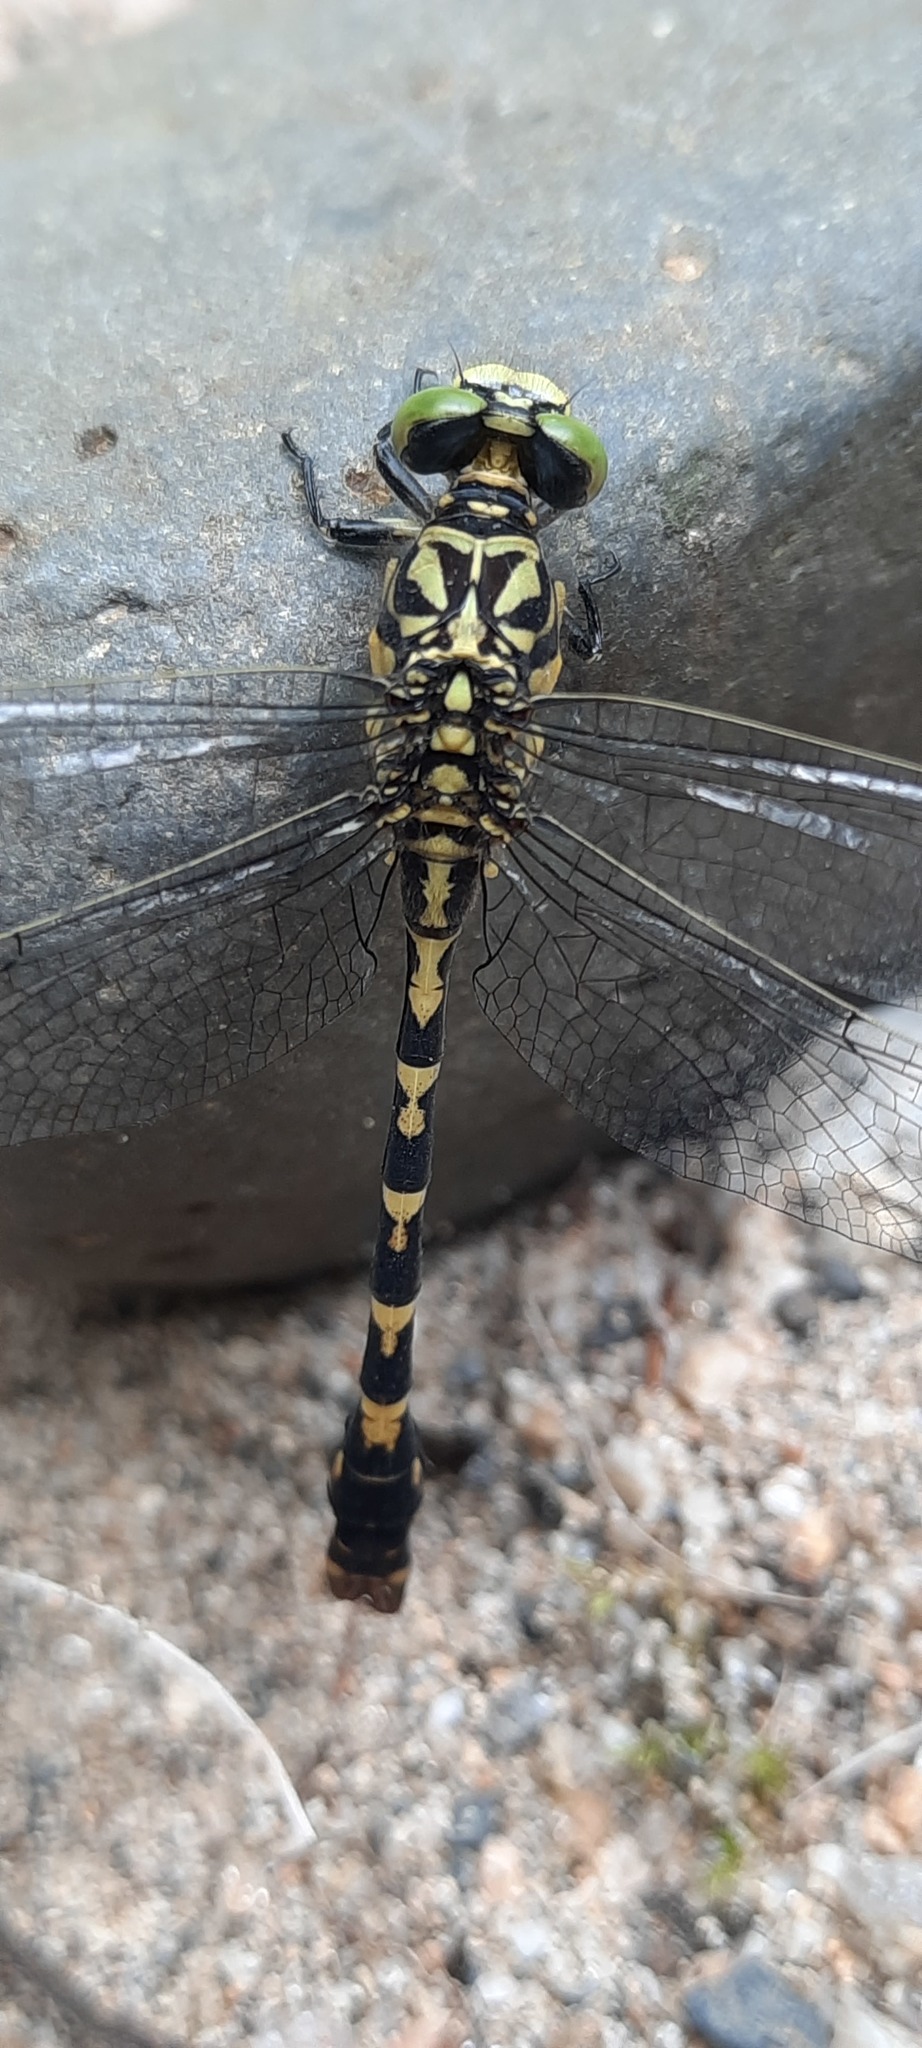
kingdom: Animalia
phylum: Arthropoda
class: Insecta
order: Odonata
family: Gomphidae
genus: Onychogomphus
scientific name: Onychogomphus forcipatus
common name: Small pincertail
